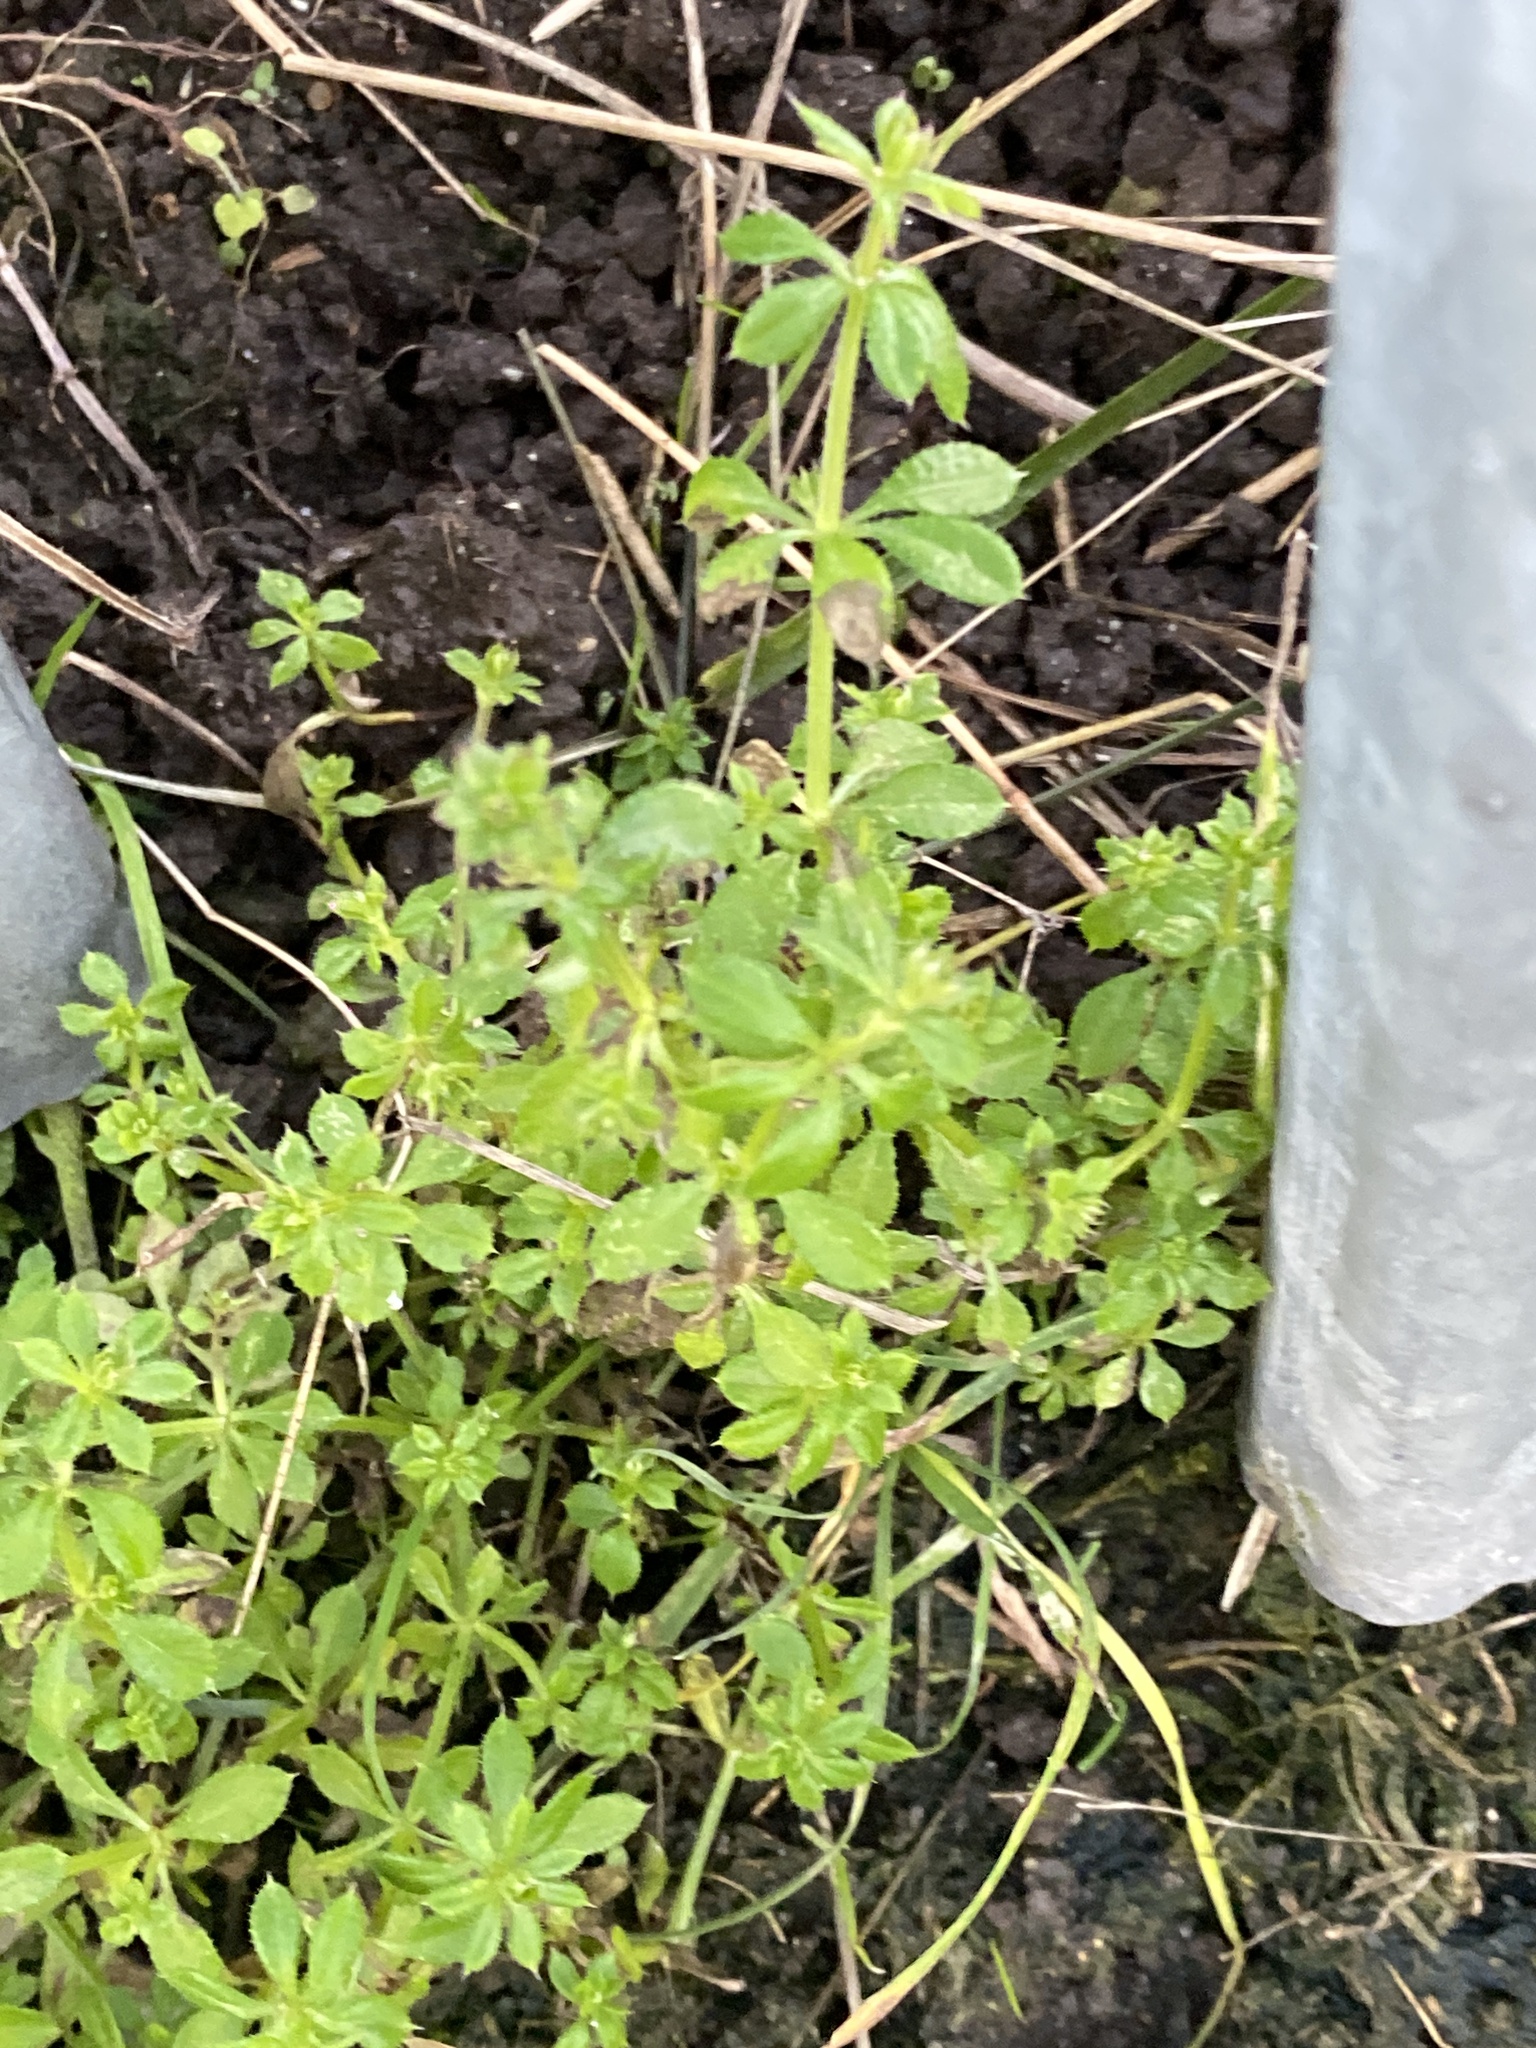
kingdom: Plantae
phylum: Tracheophyta
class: Magnoliopsida
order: Gentianales
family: Rubiaceae
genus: Galium
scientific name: Galium aparine
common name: Cleavers
